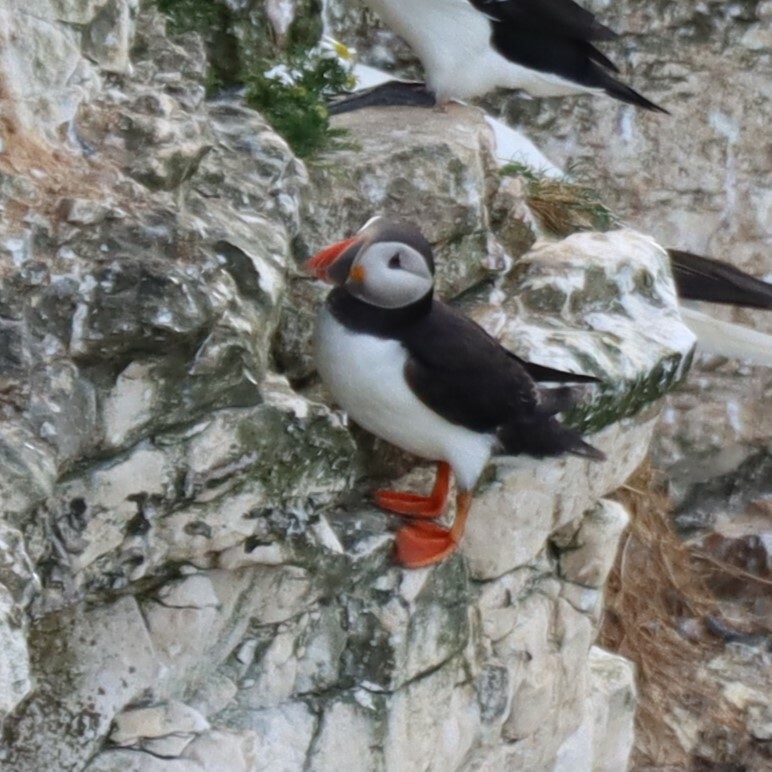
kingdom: Animalia
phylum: Chordata
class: Aves
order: Charadriiformes
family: Alcidae
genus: Fratercula
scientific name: Fratercula arctica
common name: Atlantic puffin
